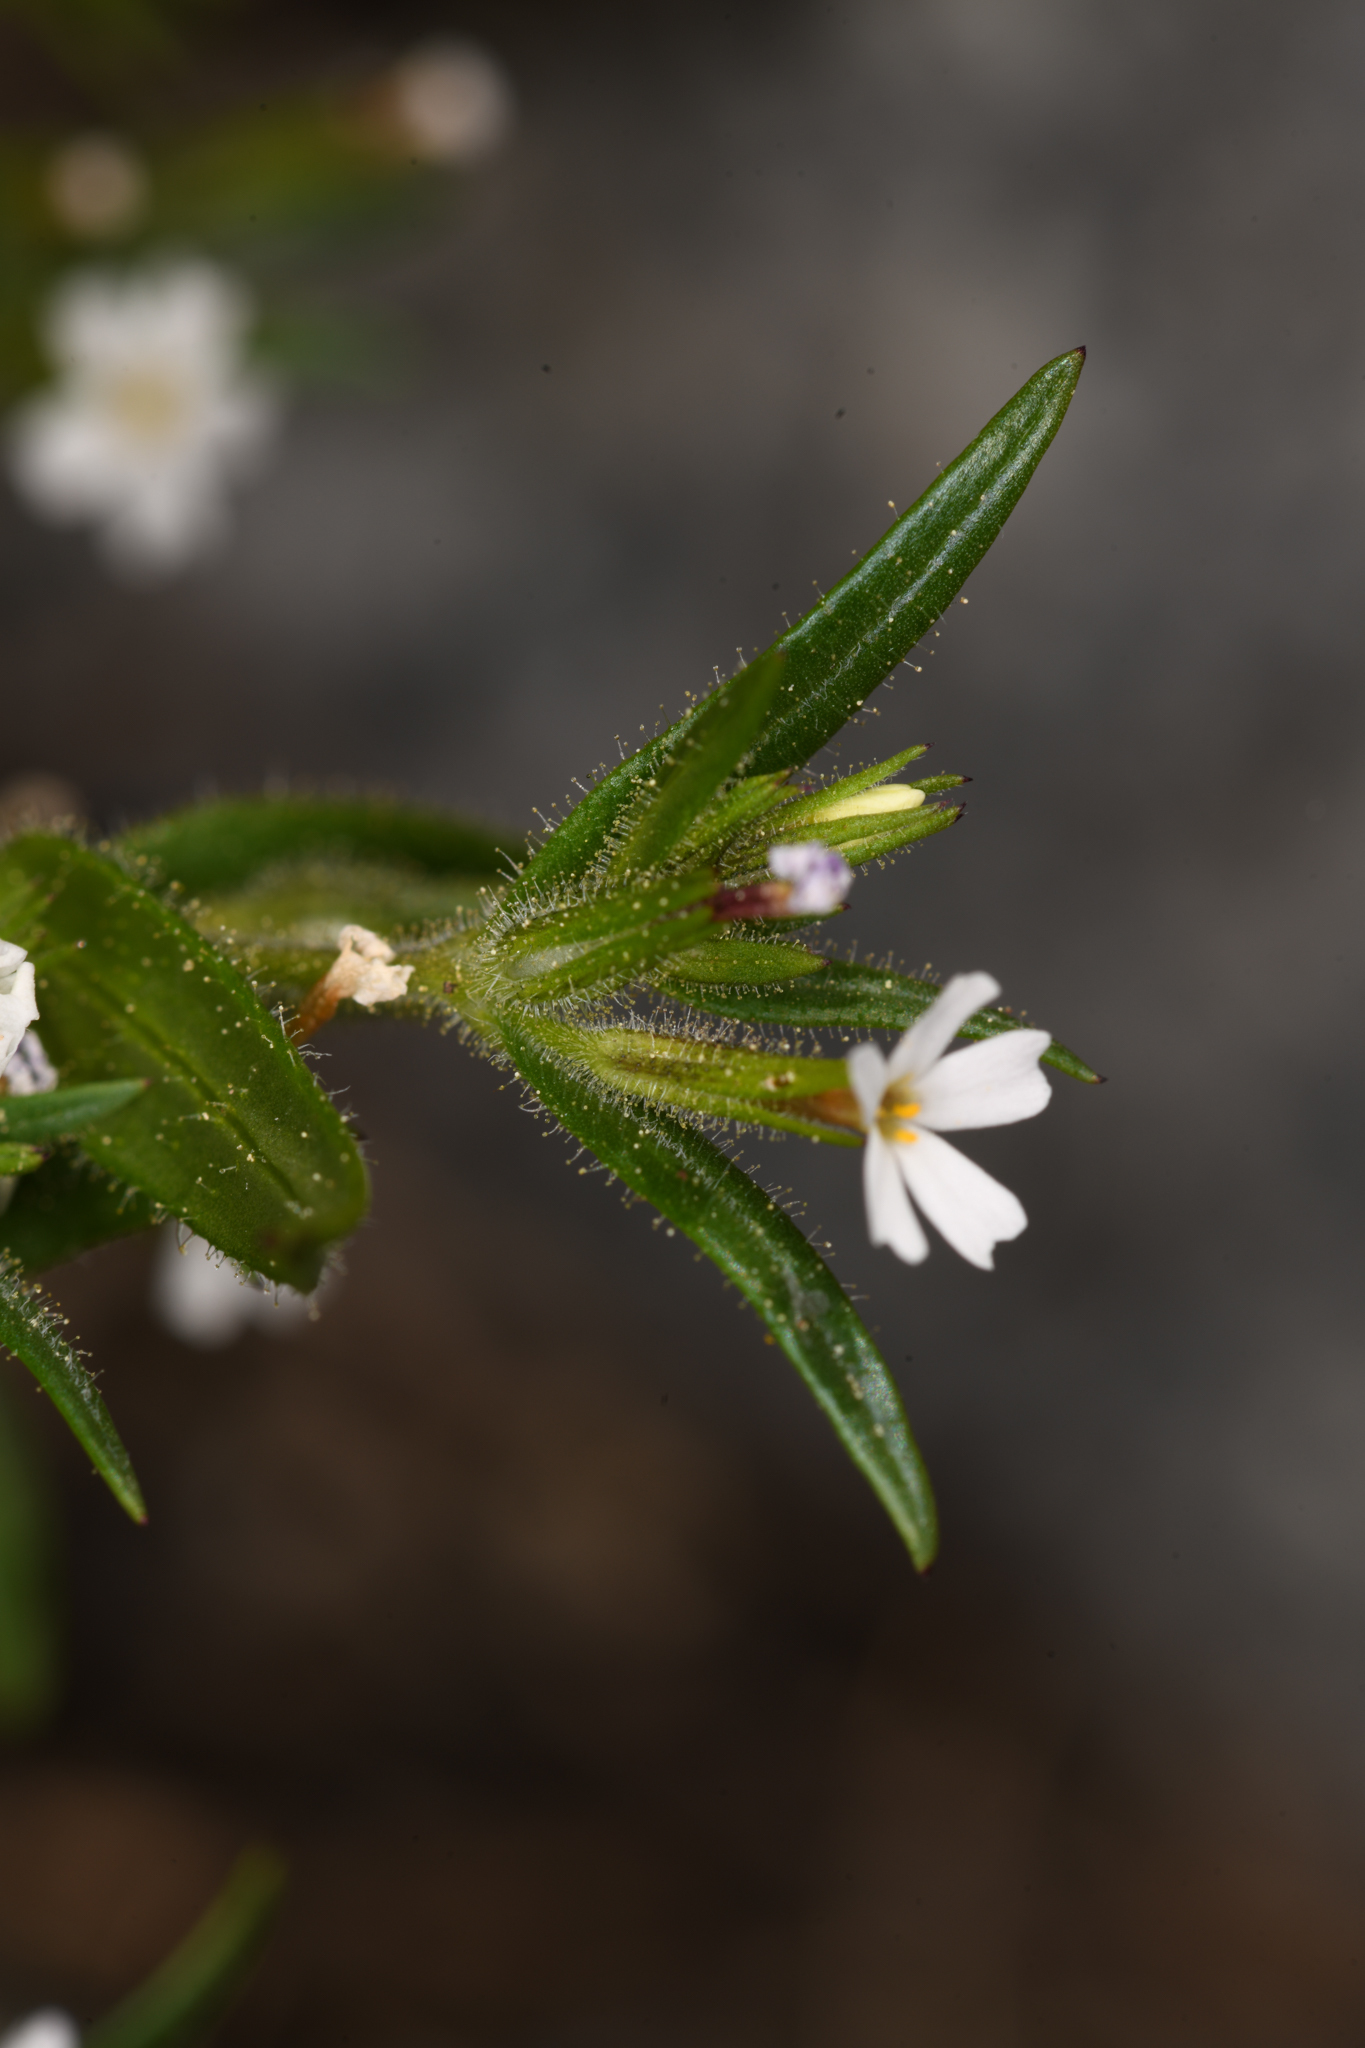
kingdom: Plantae
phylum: Tracheophyta
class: Magnoliopsida
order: Ericales
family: Polemoniaceae
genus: Phlox
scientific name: Phlox gracilis
